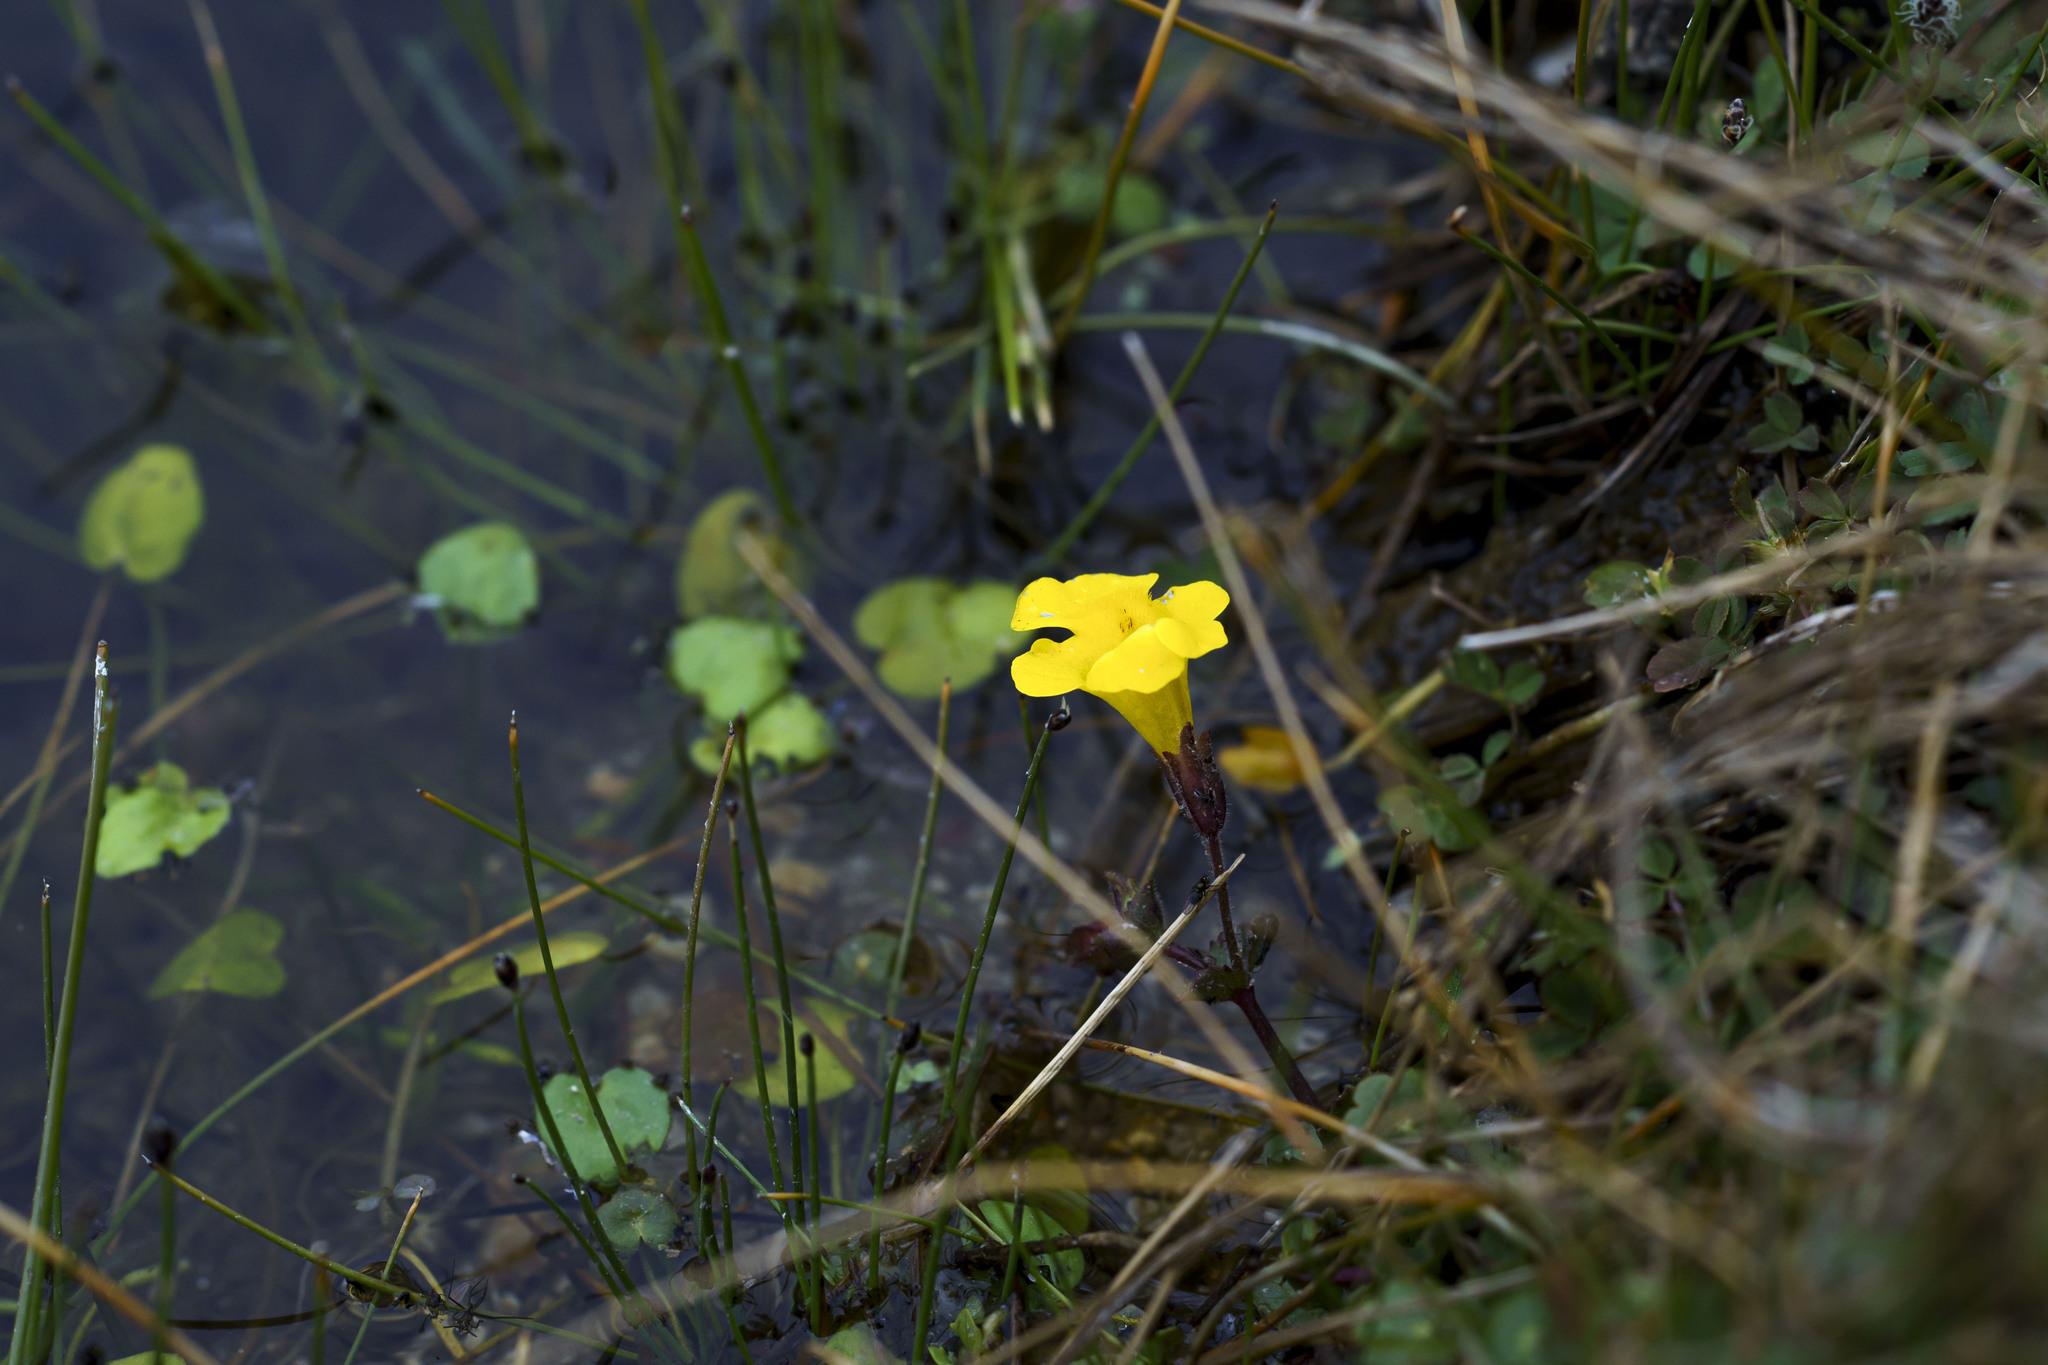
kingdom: Plantae
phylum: Tracheophyta
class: Magnoliopsida
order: Lamiales
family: Phrymaceae
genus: Erythranthe
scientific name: Erythranthe lagunensis
